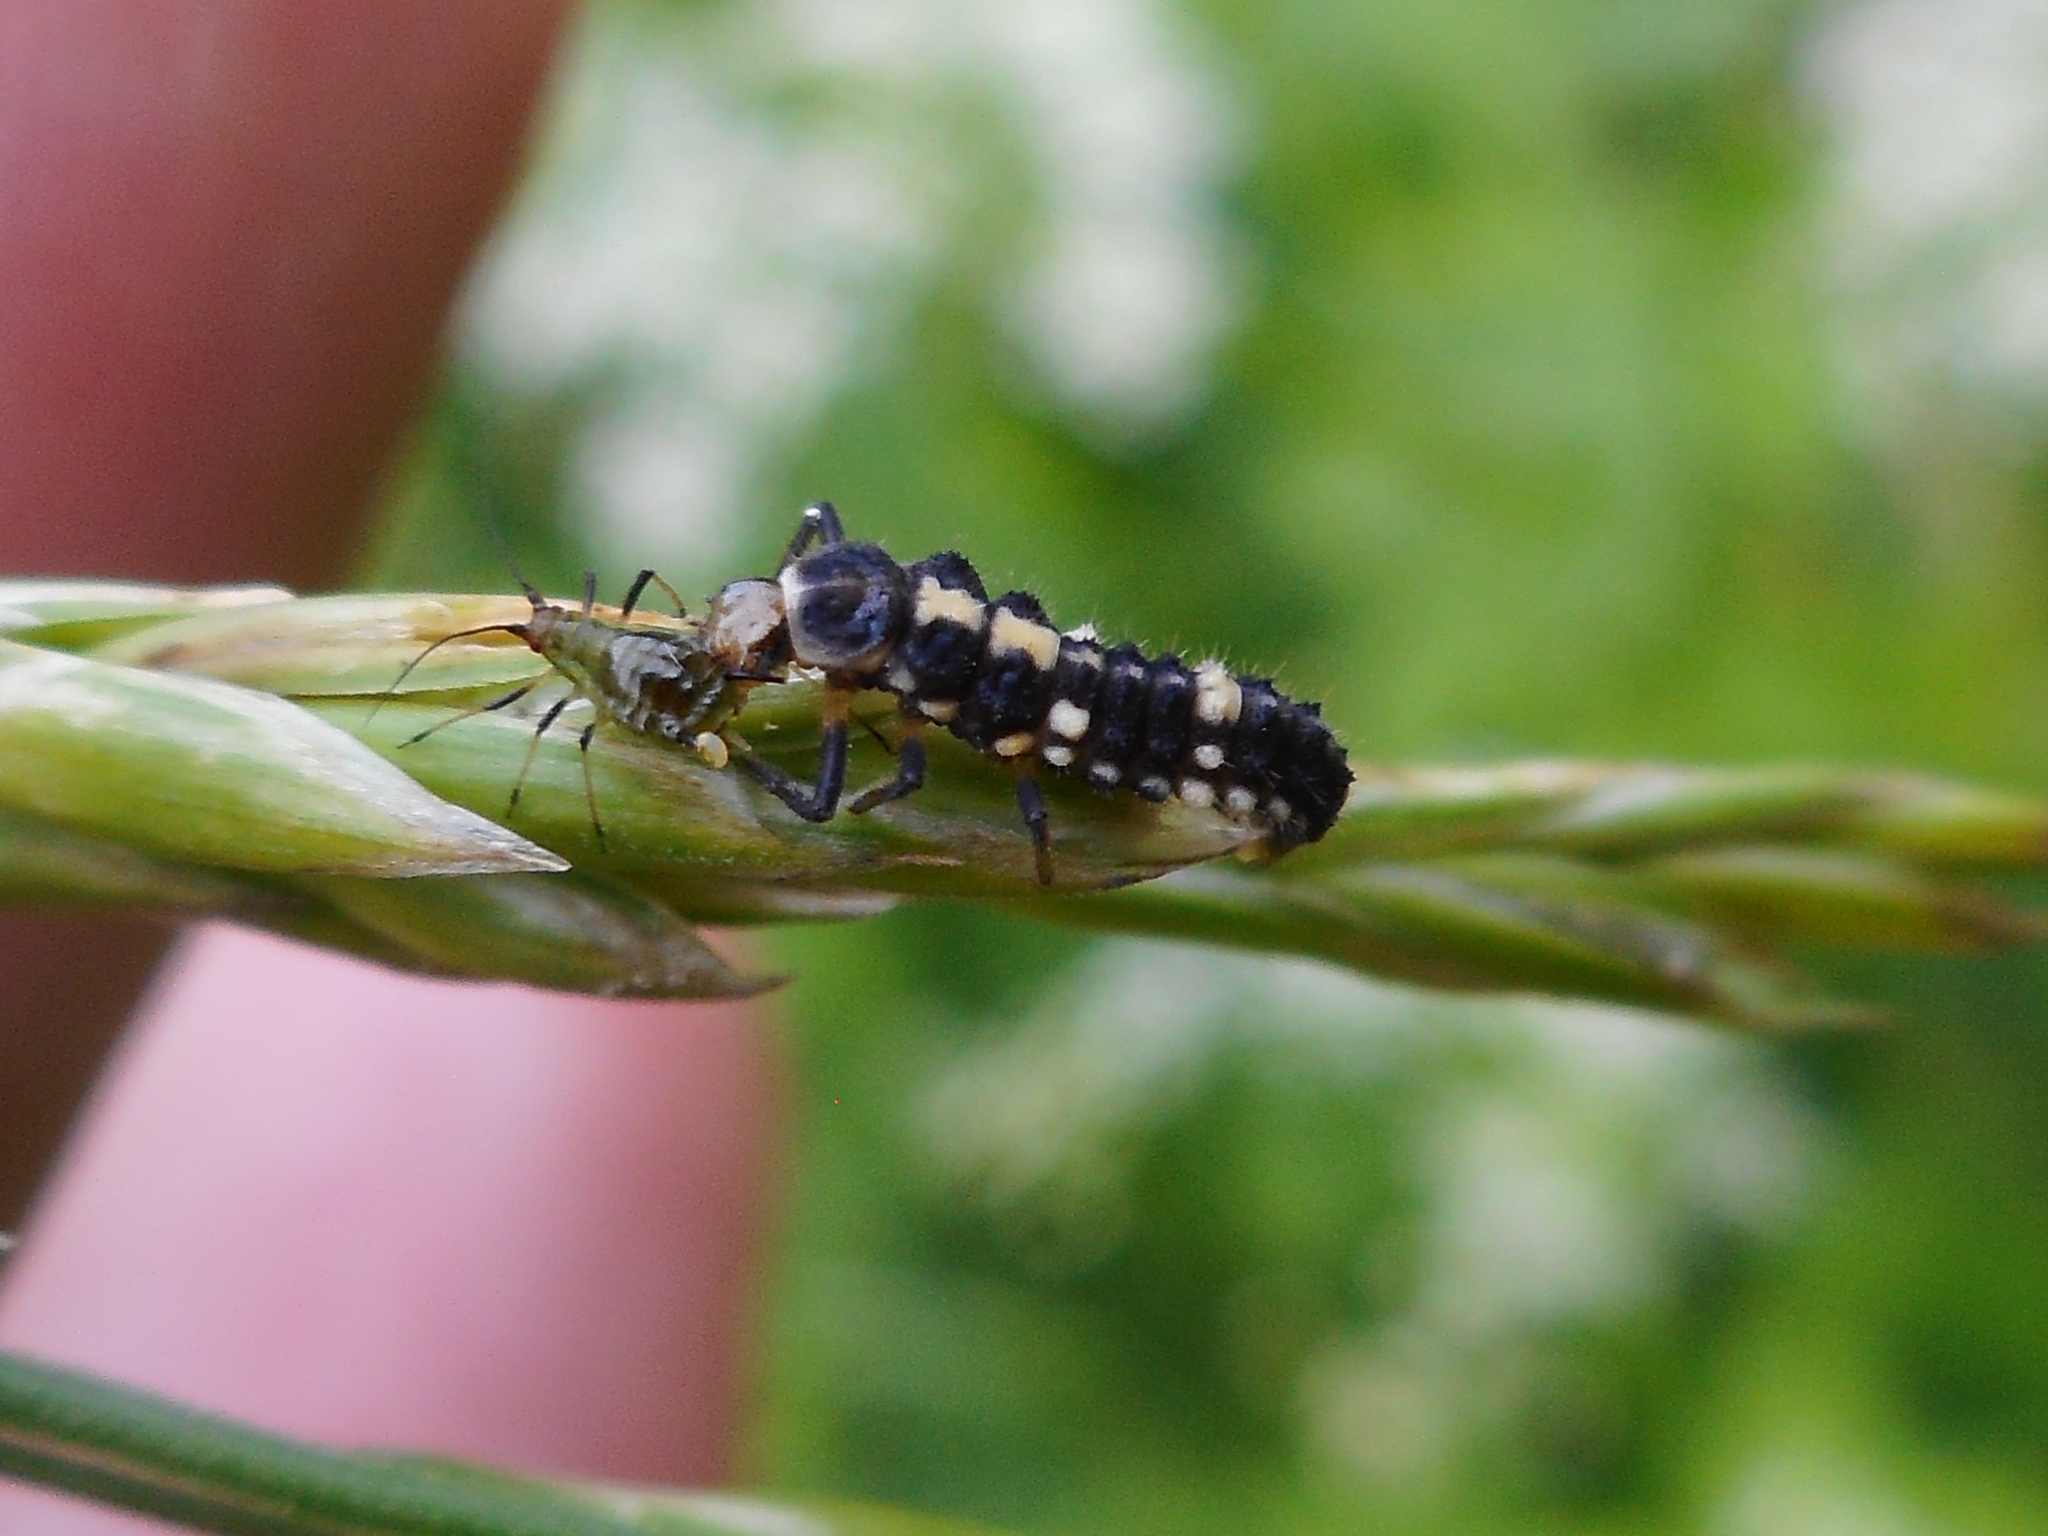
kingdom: Animalia
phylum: Arthropoda
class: Insecta
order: Coleoptera
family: Coccinellidae
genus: Propylaea
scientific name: Propylaea quatuordecimpunctata
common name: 14-spotted ladybird beetle
